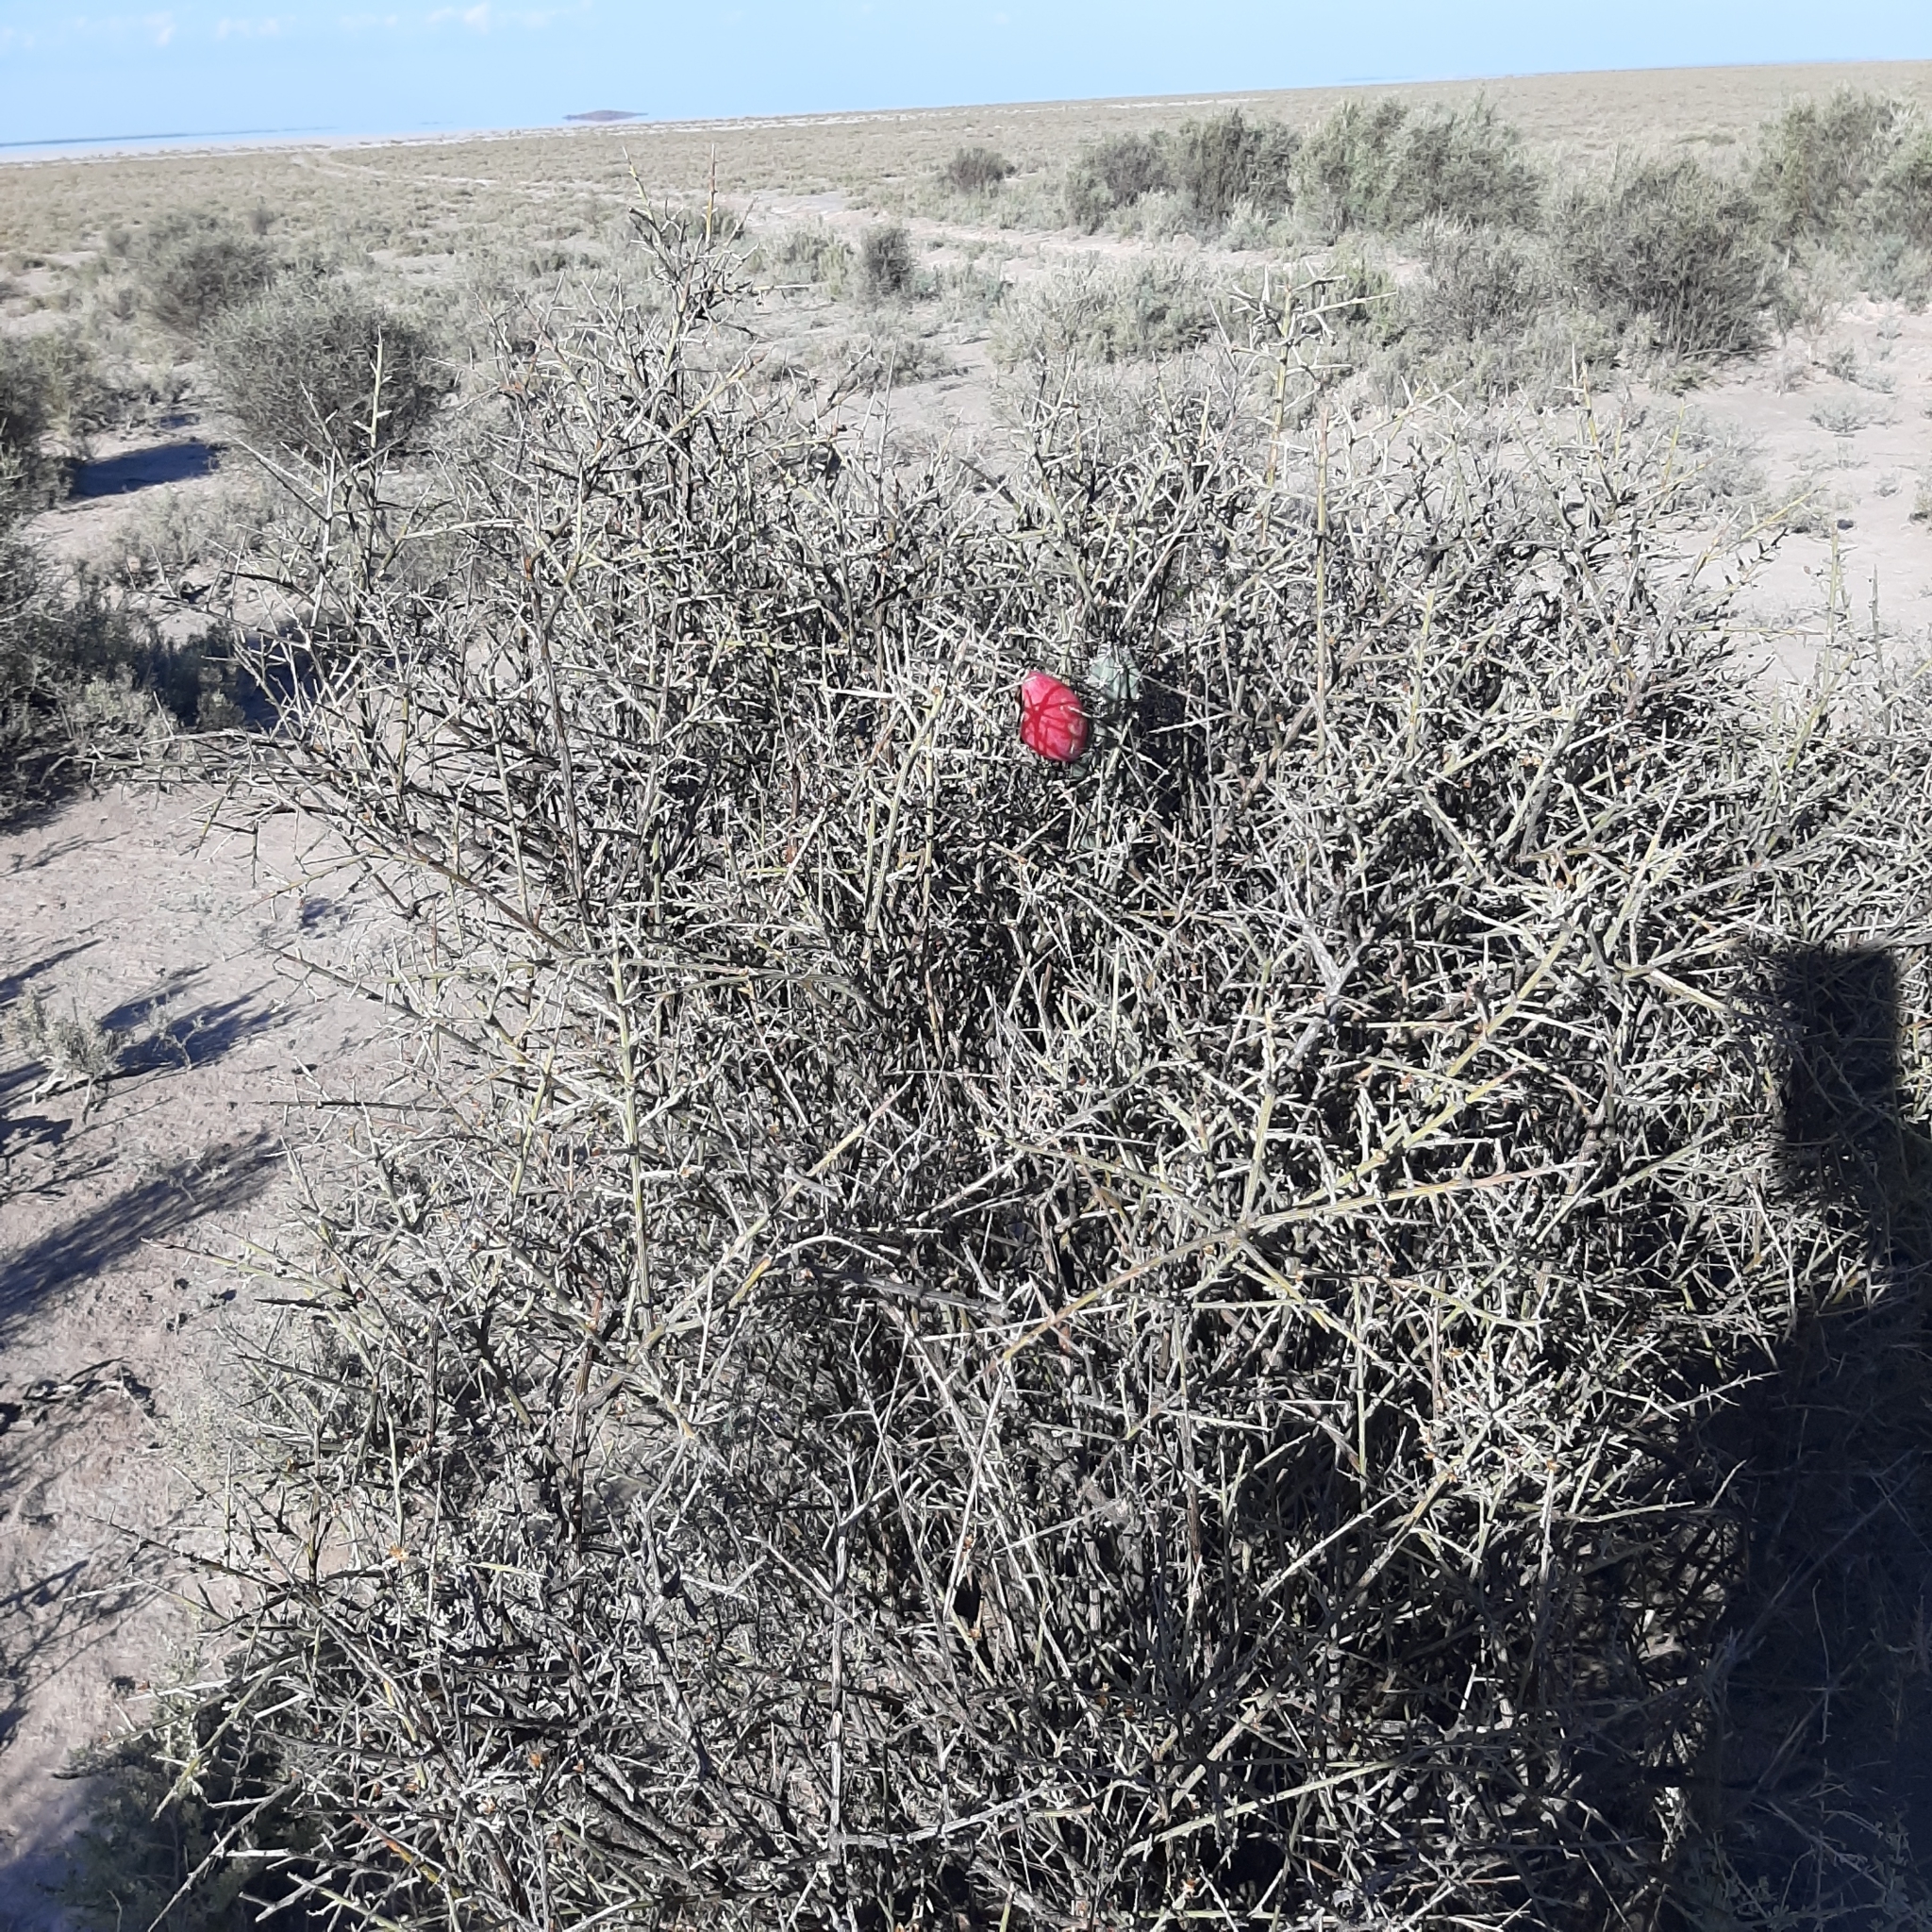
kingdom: Plantae
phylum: Tracheophyta
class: Magnoliopsida
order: Caryophyllales
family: Cactaceae
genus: Cereus
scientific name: Cereus aethiops
